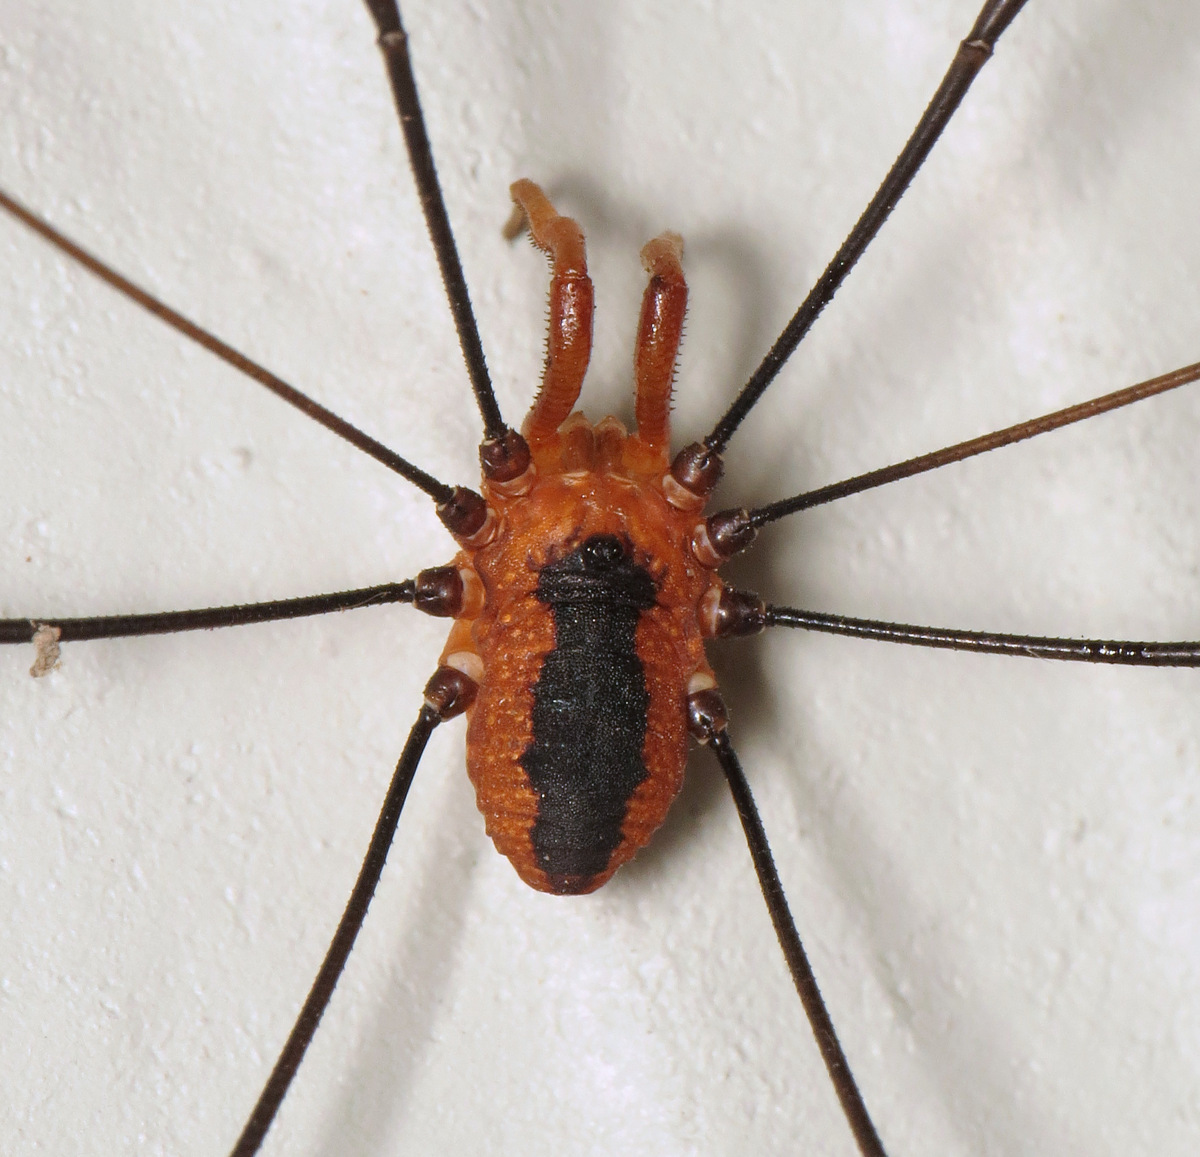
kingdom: Animalia
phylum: Arthropoda
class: Arachnida
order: Opiliones
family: Sclerosomatidae
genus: Leiobunum
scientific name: Leiobunum vittatum
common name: Eastern harvestman
